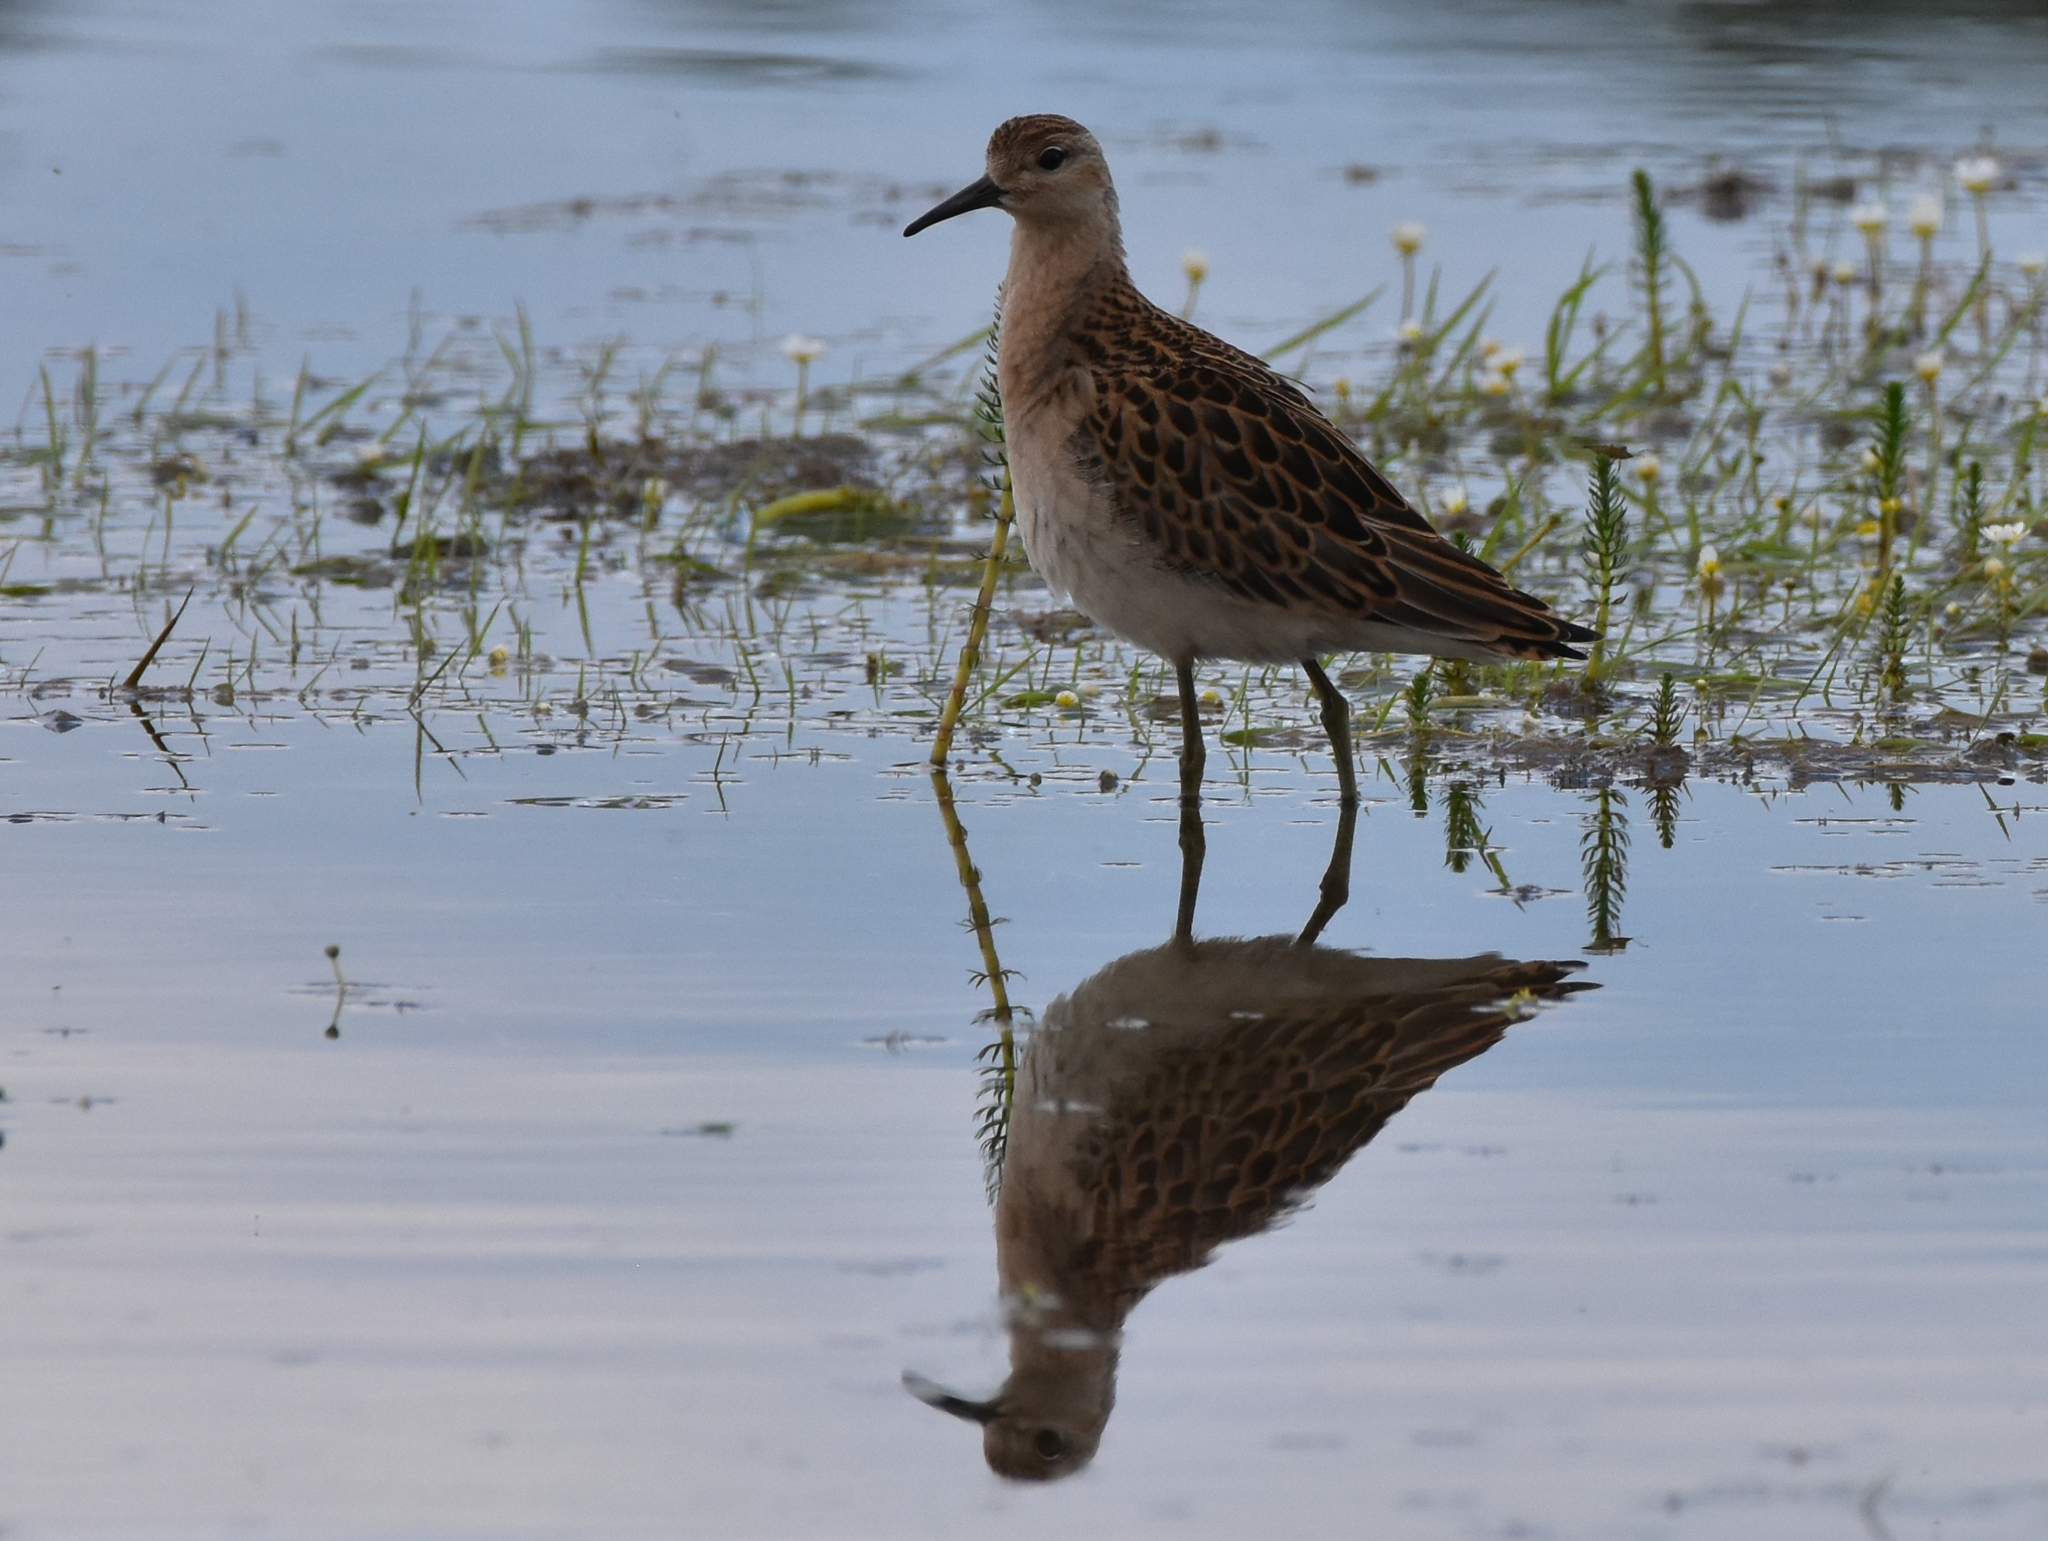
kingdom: Animalia
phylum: Chordata
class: Aves
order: Charadriiformes
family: Scolopacidae
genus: Calidris
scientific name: Calidris pugnax
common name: Ruff
